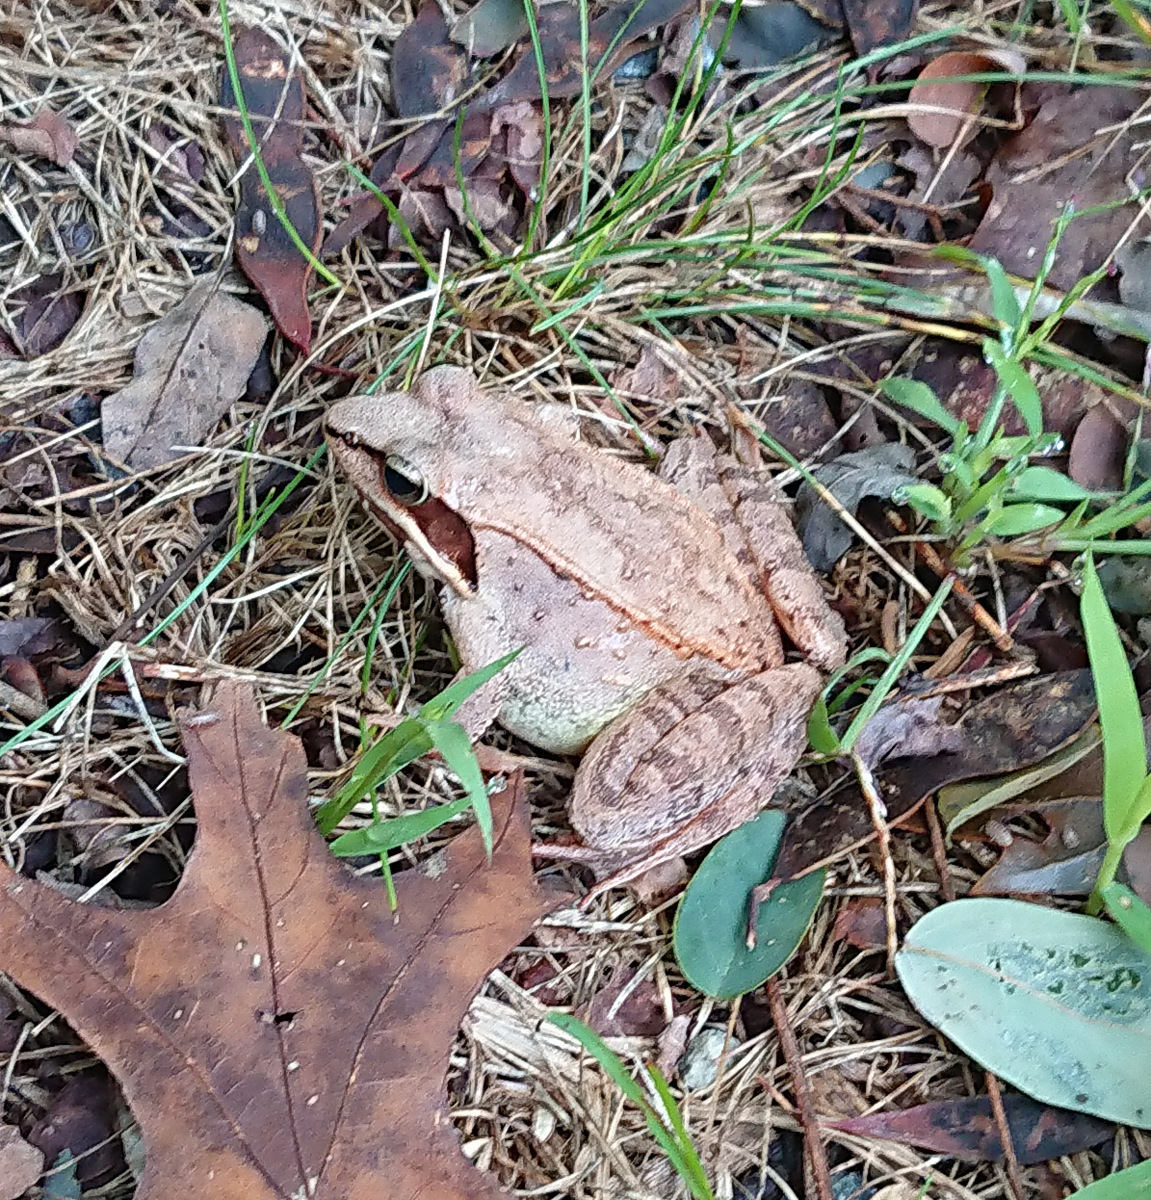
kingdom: Animalia
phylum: Chordata
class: Amphibia
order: Anura
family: Ranidae
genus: Lithobates
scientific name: Lithobates sylvaticus
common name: Wood frog
